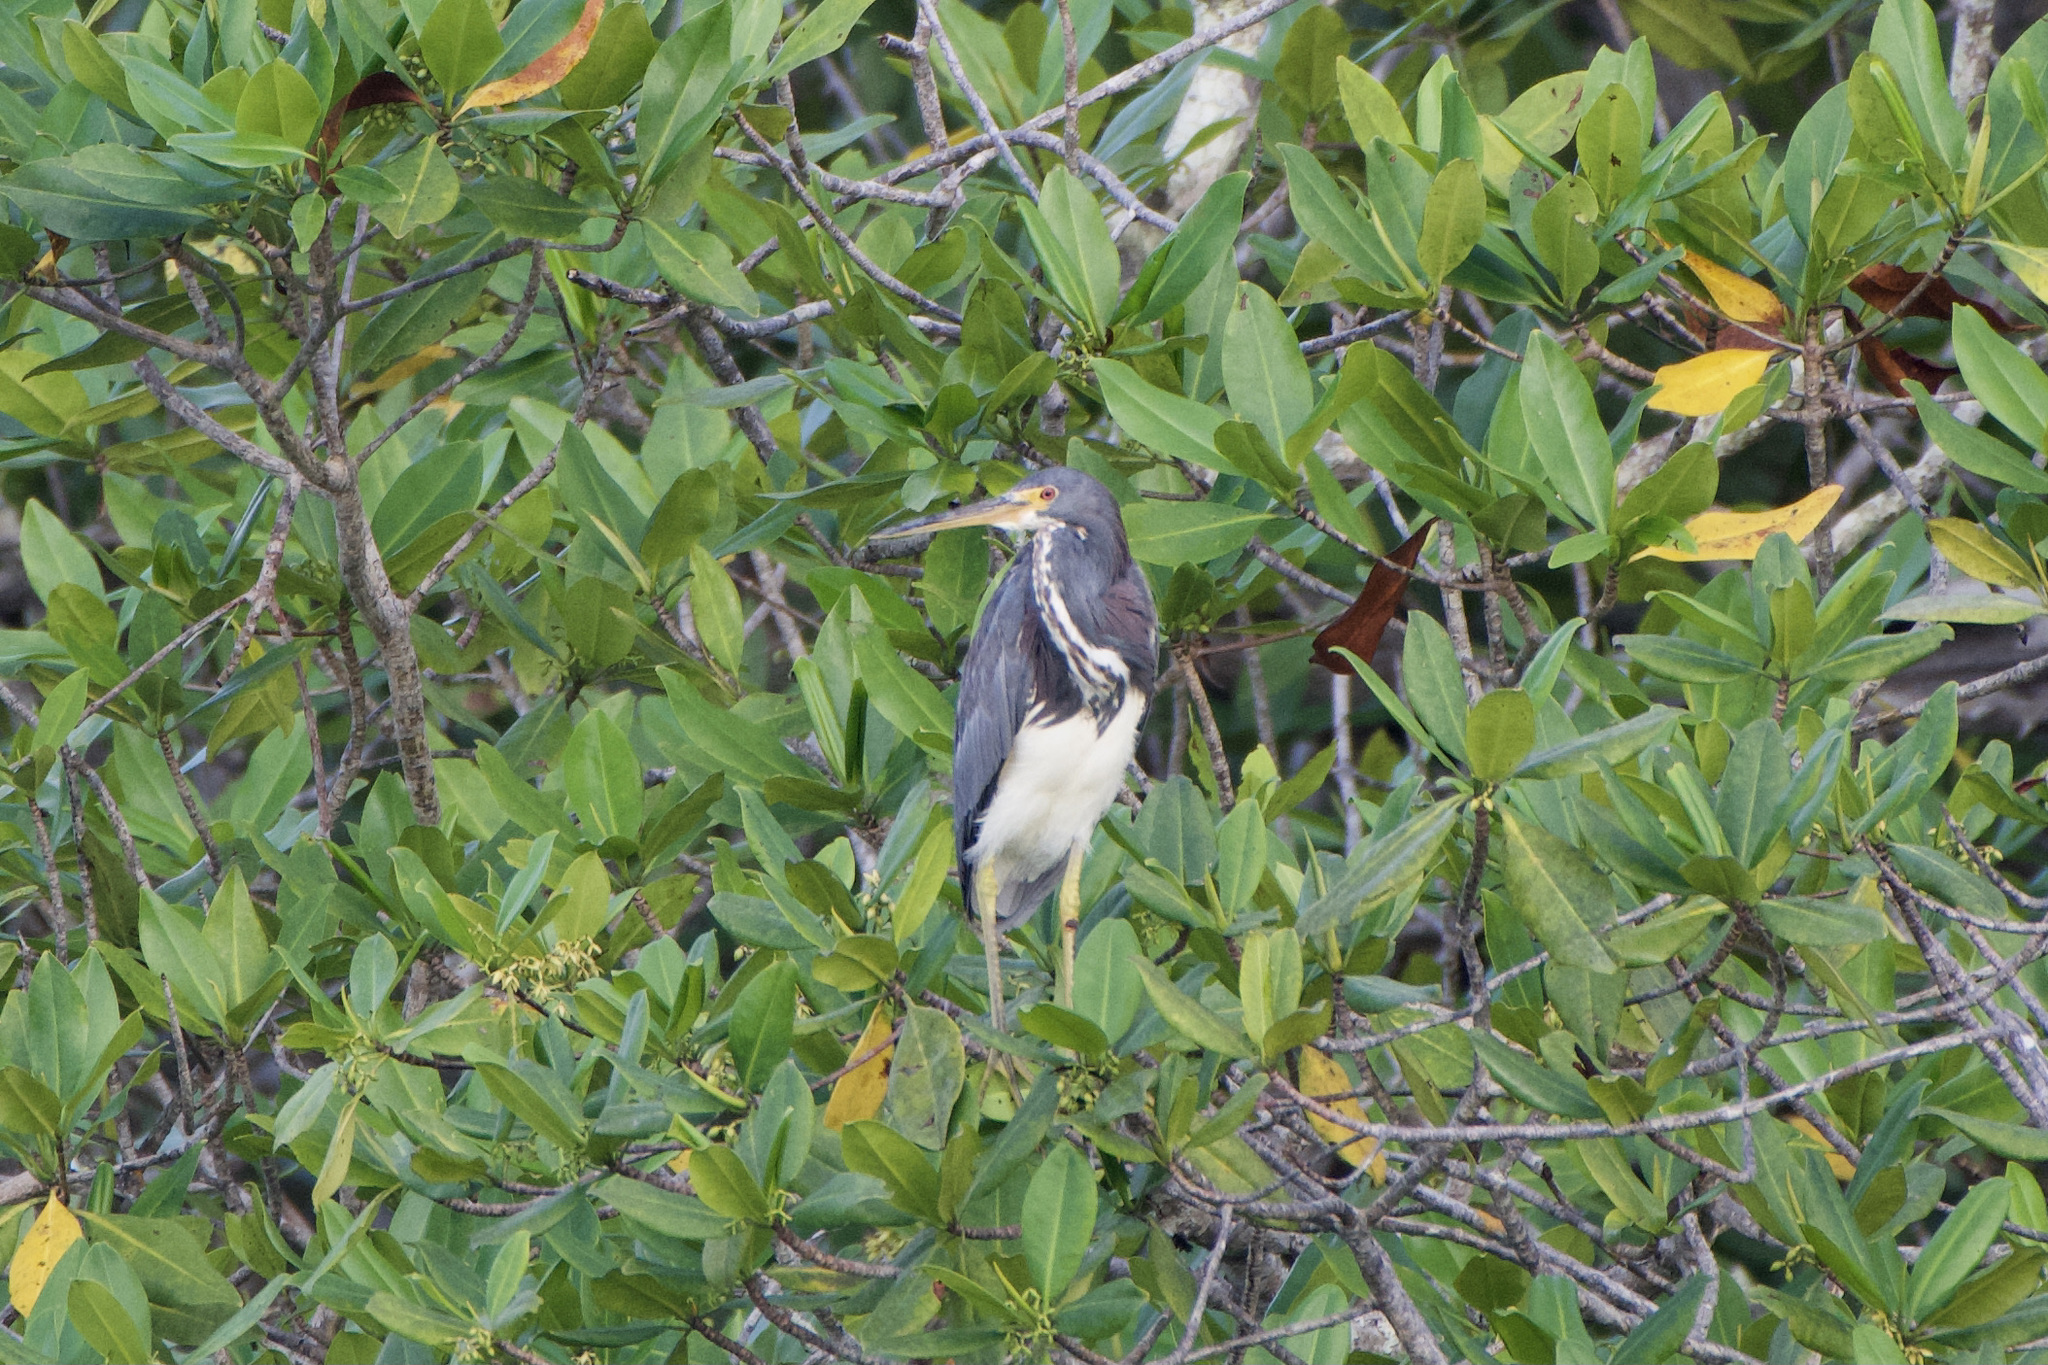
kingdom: Animalia
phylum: Chordata
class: Aves
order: Pelecaniformes
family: Ardeidae
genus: Egretta
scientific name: Egretta tricolor
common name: Tricolored heron
